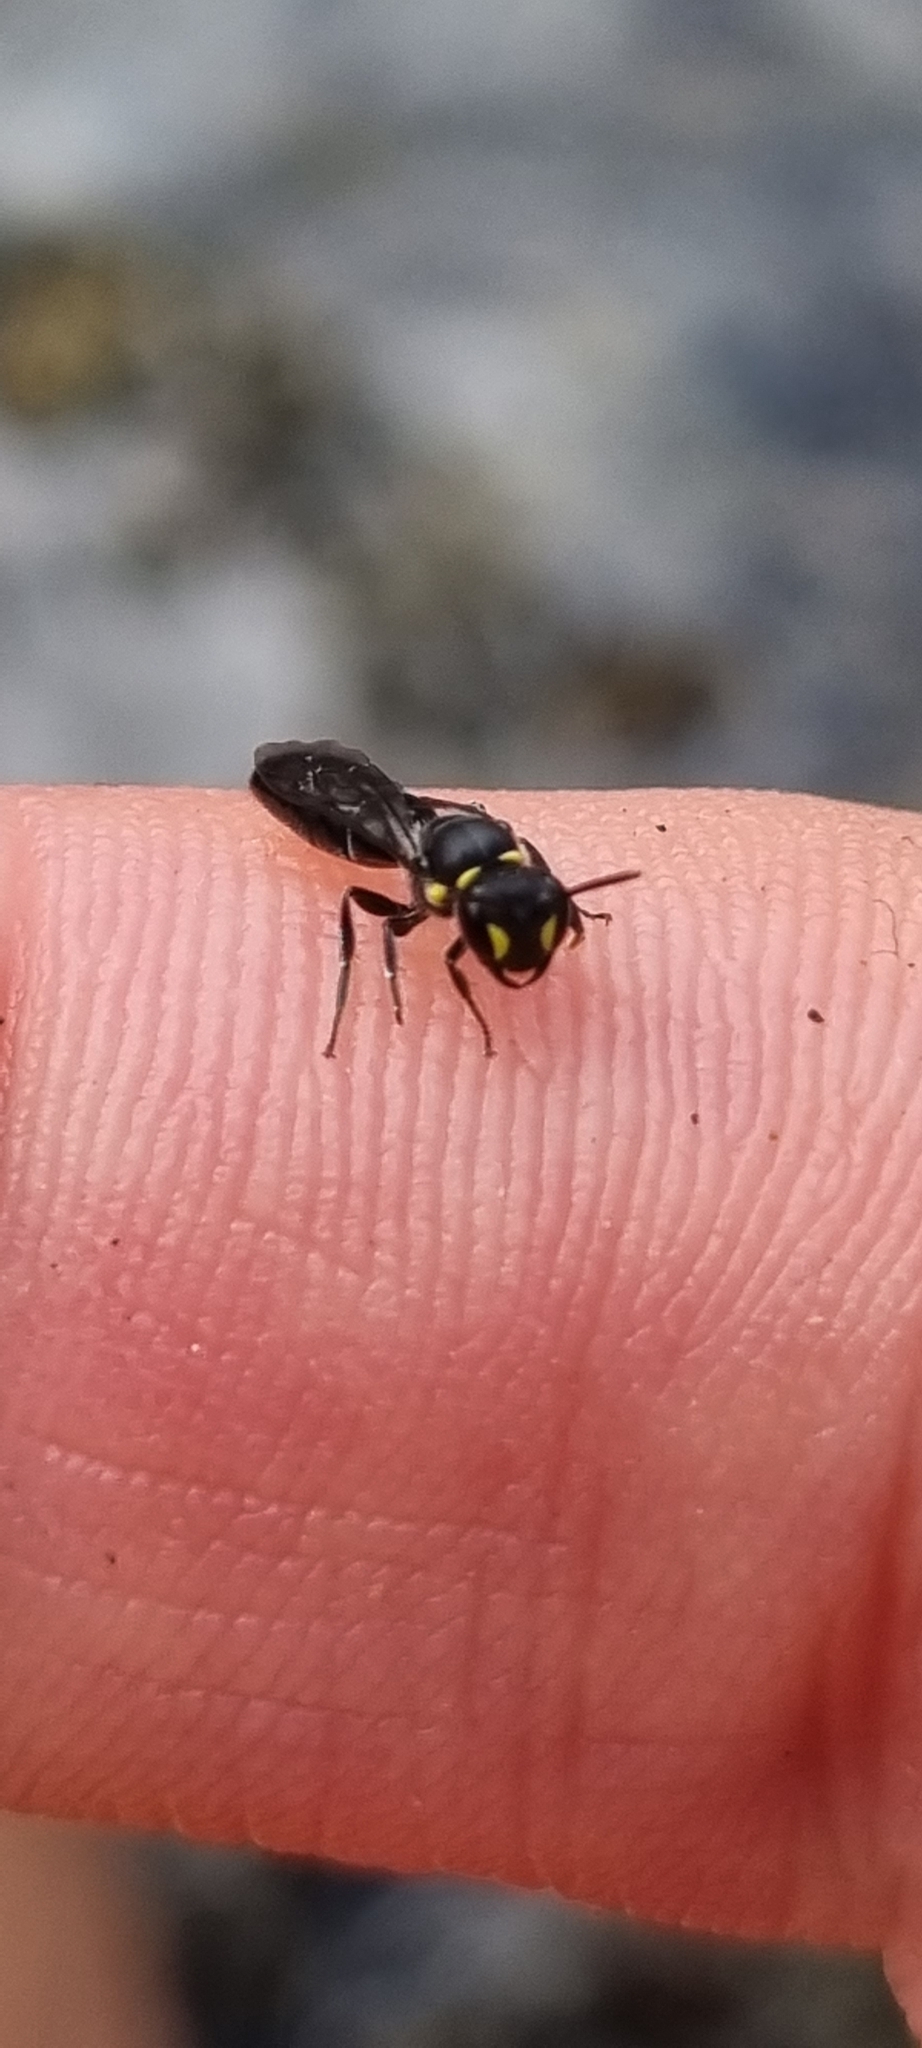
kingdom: Animalia
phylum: Arthropoda
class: Insecta
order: Hymenoptera
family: Colletidae
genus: Hylaeus
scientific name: Hylaeus relegatus
